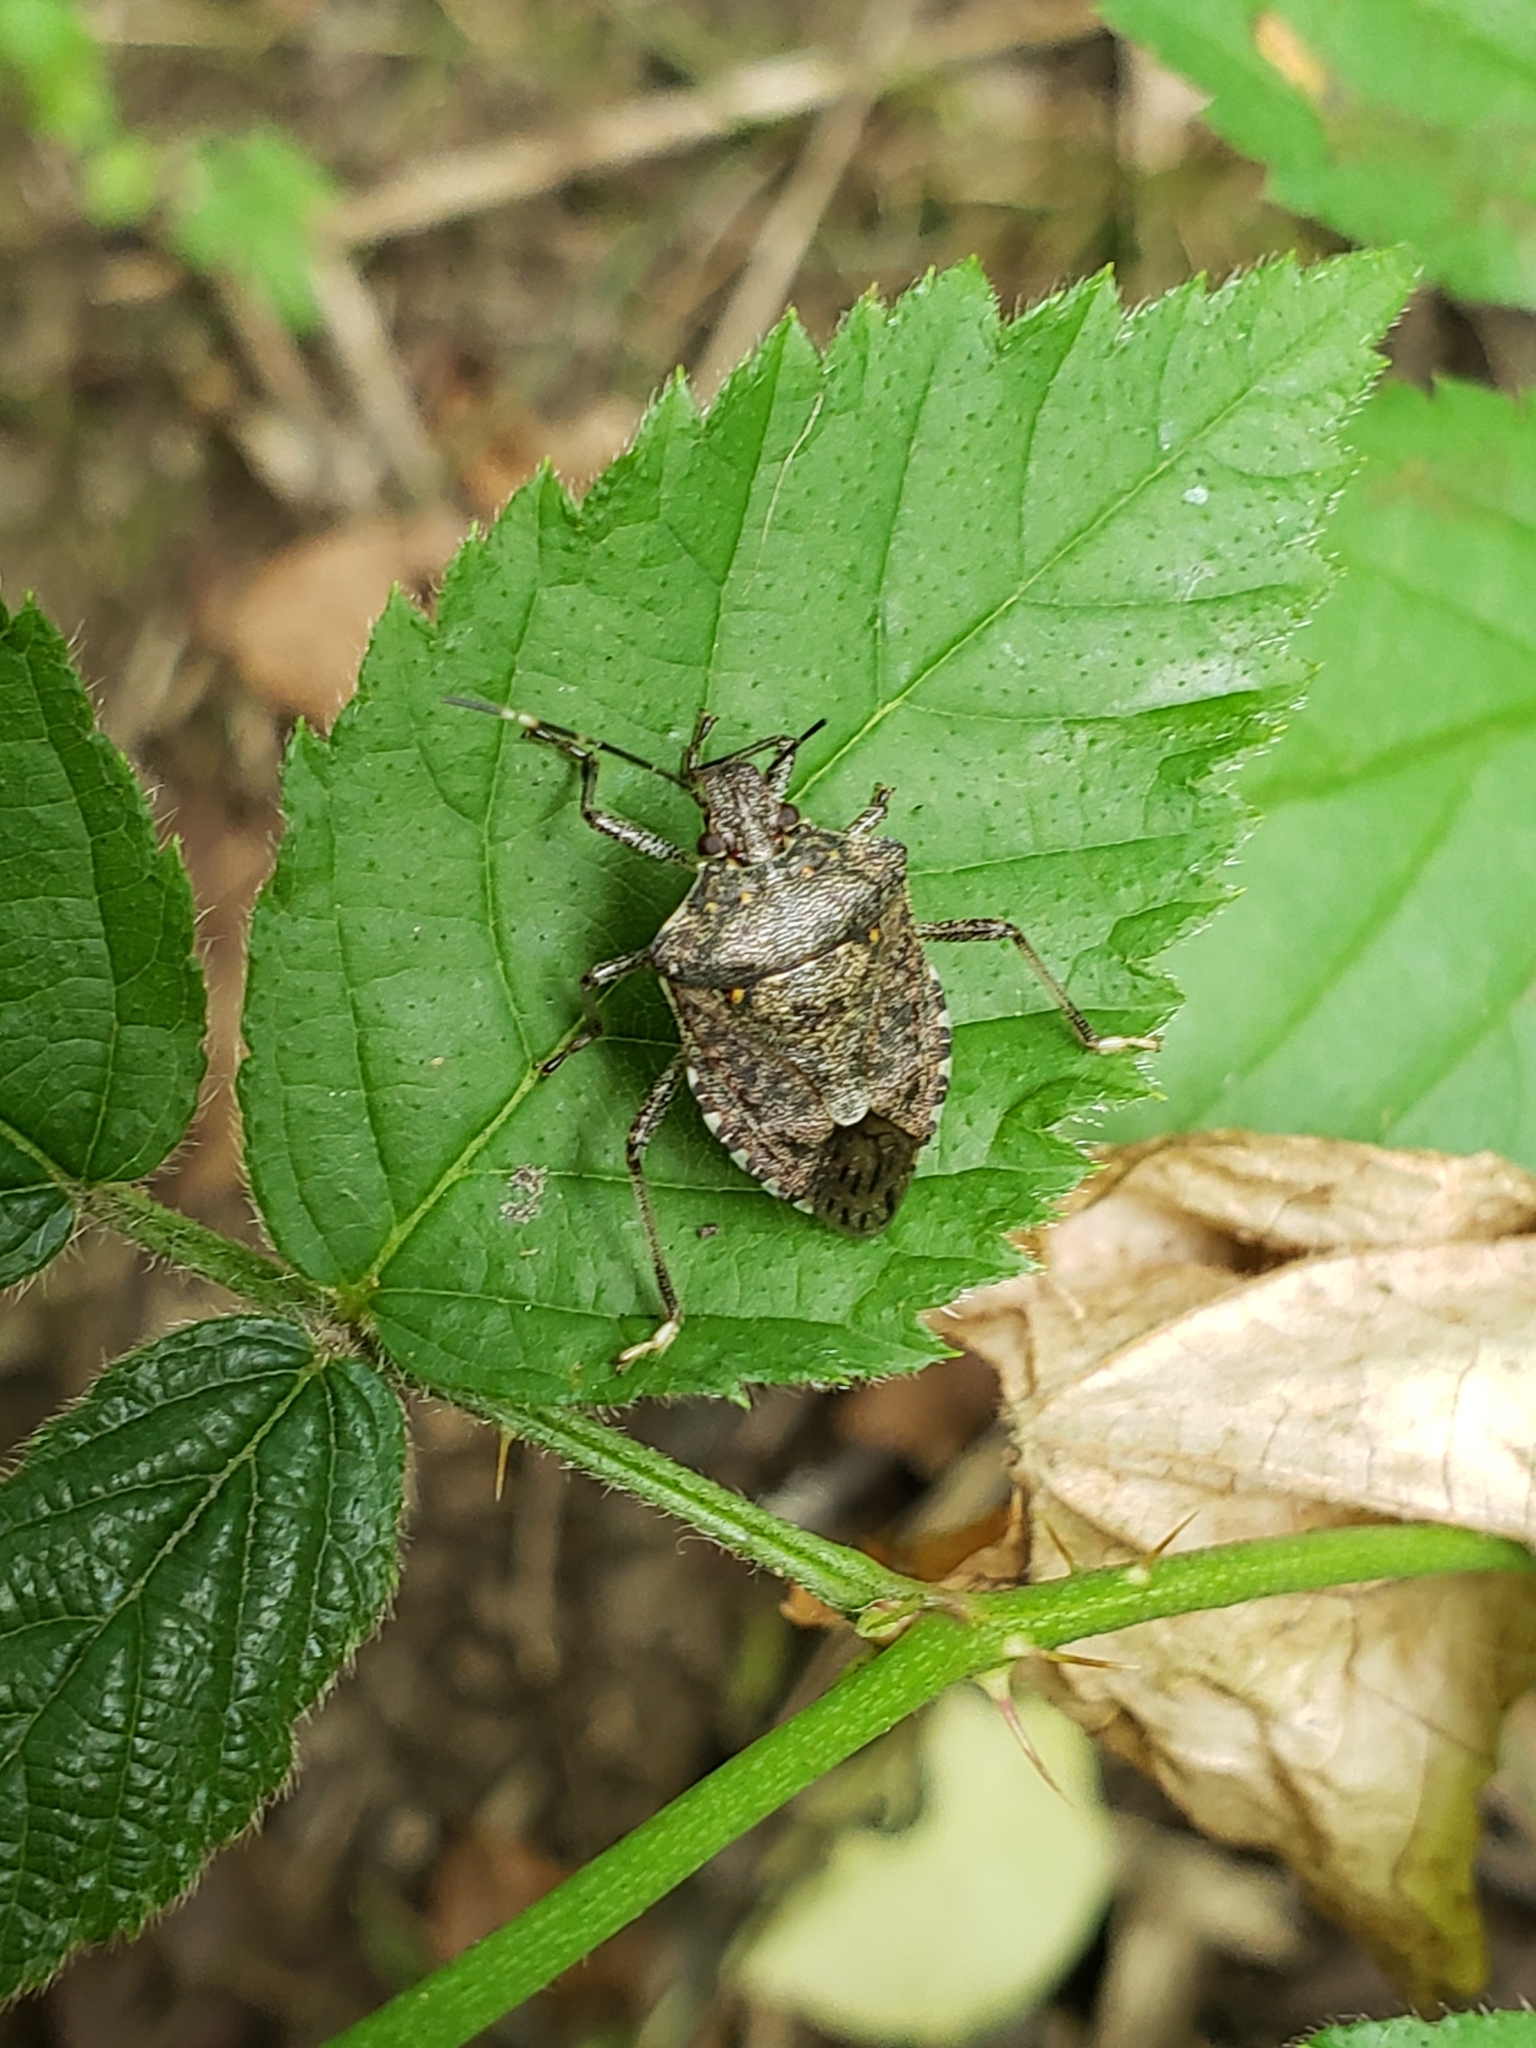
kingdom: Animalia
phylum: Arthropoda
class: Insecta
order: Hemiptera
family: Pentatomidae
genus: Halyomorpha
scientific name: Halyomorpha halys
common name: Brown marmorated stink bug
